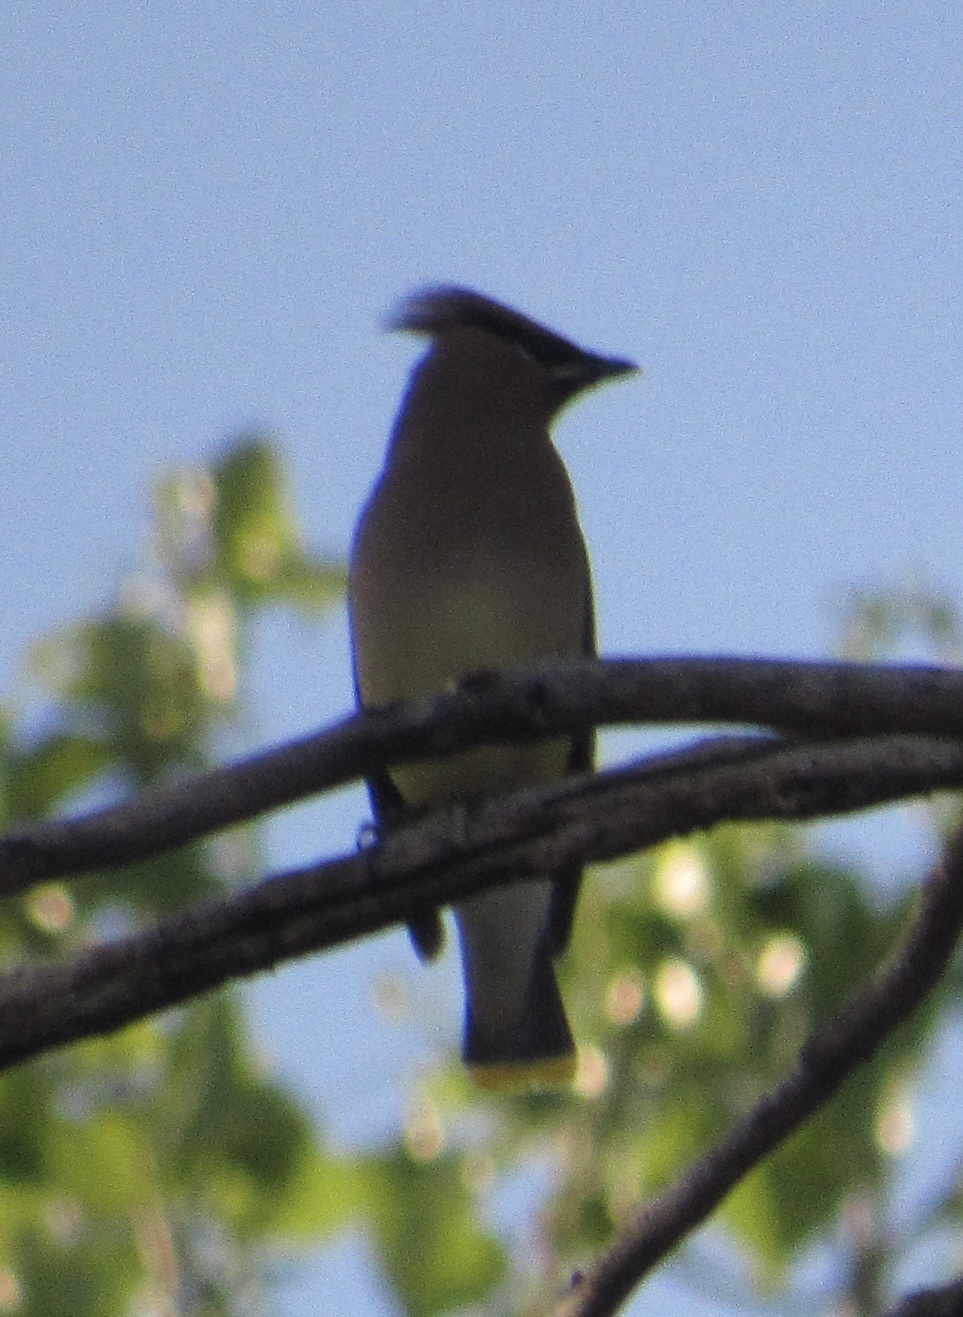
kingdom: Animalia
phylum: Chordata
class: Aves
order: Passeriformes
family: Bombycillidae
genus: Bombycilla
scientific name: Bombycilla cedrorum
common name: Cedar waxwing
